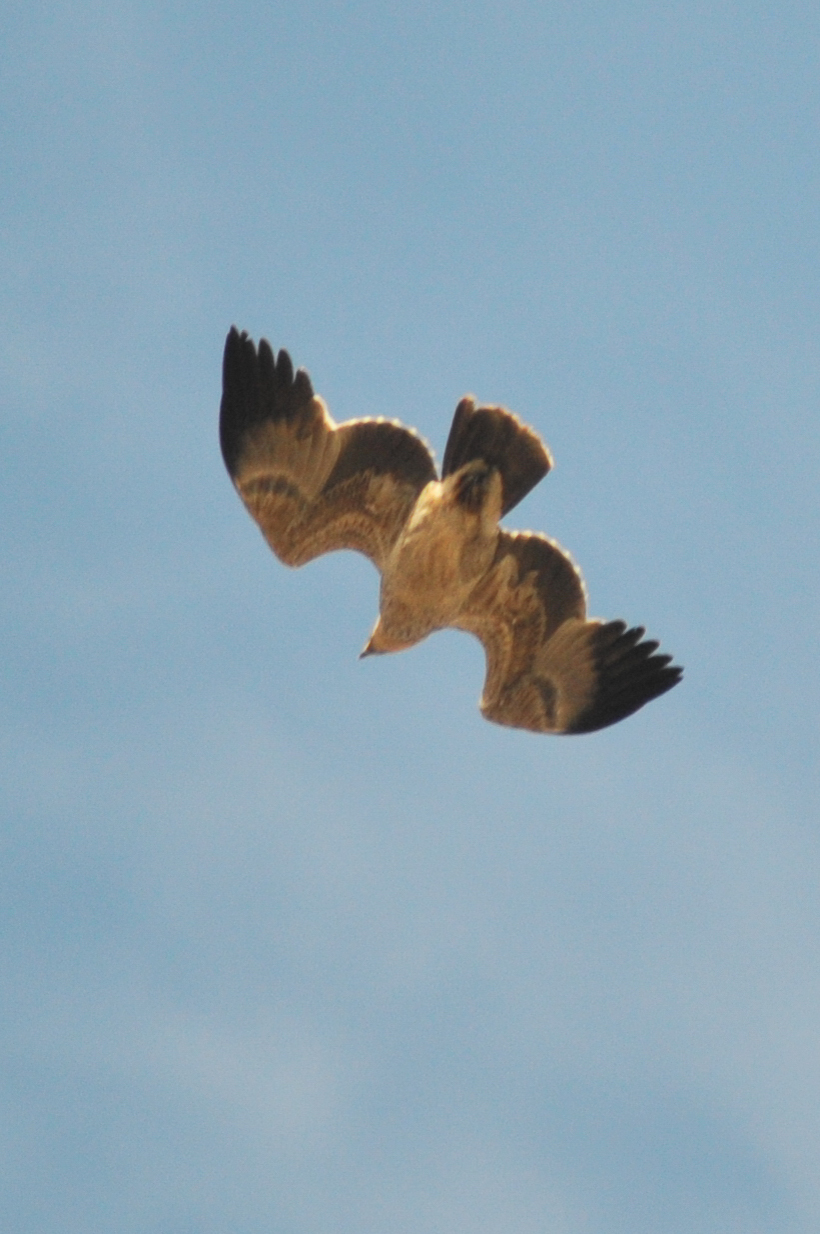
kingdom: Animalia
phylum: Chordata
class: Aves
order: Accipitriformes
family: Accipitridae
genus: Aquila
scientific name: Aquila rapax
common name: Tawny eagle
